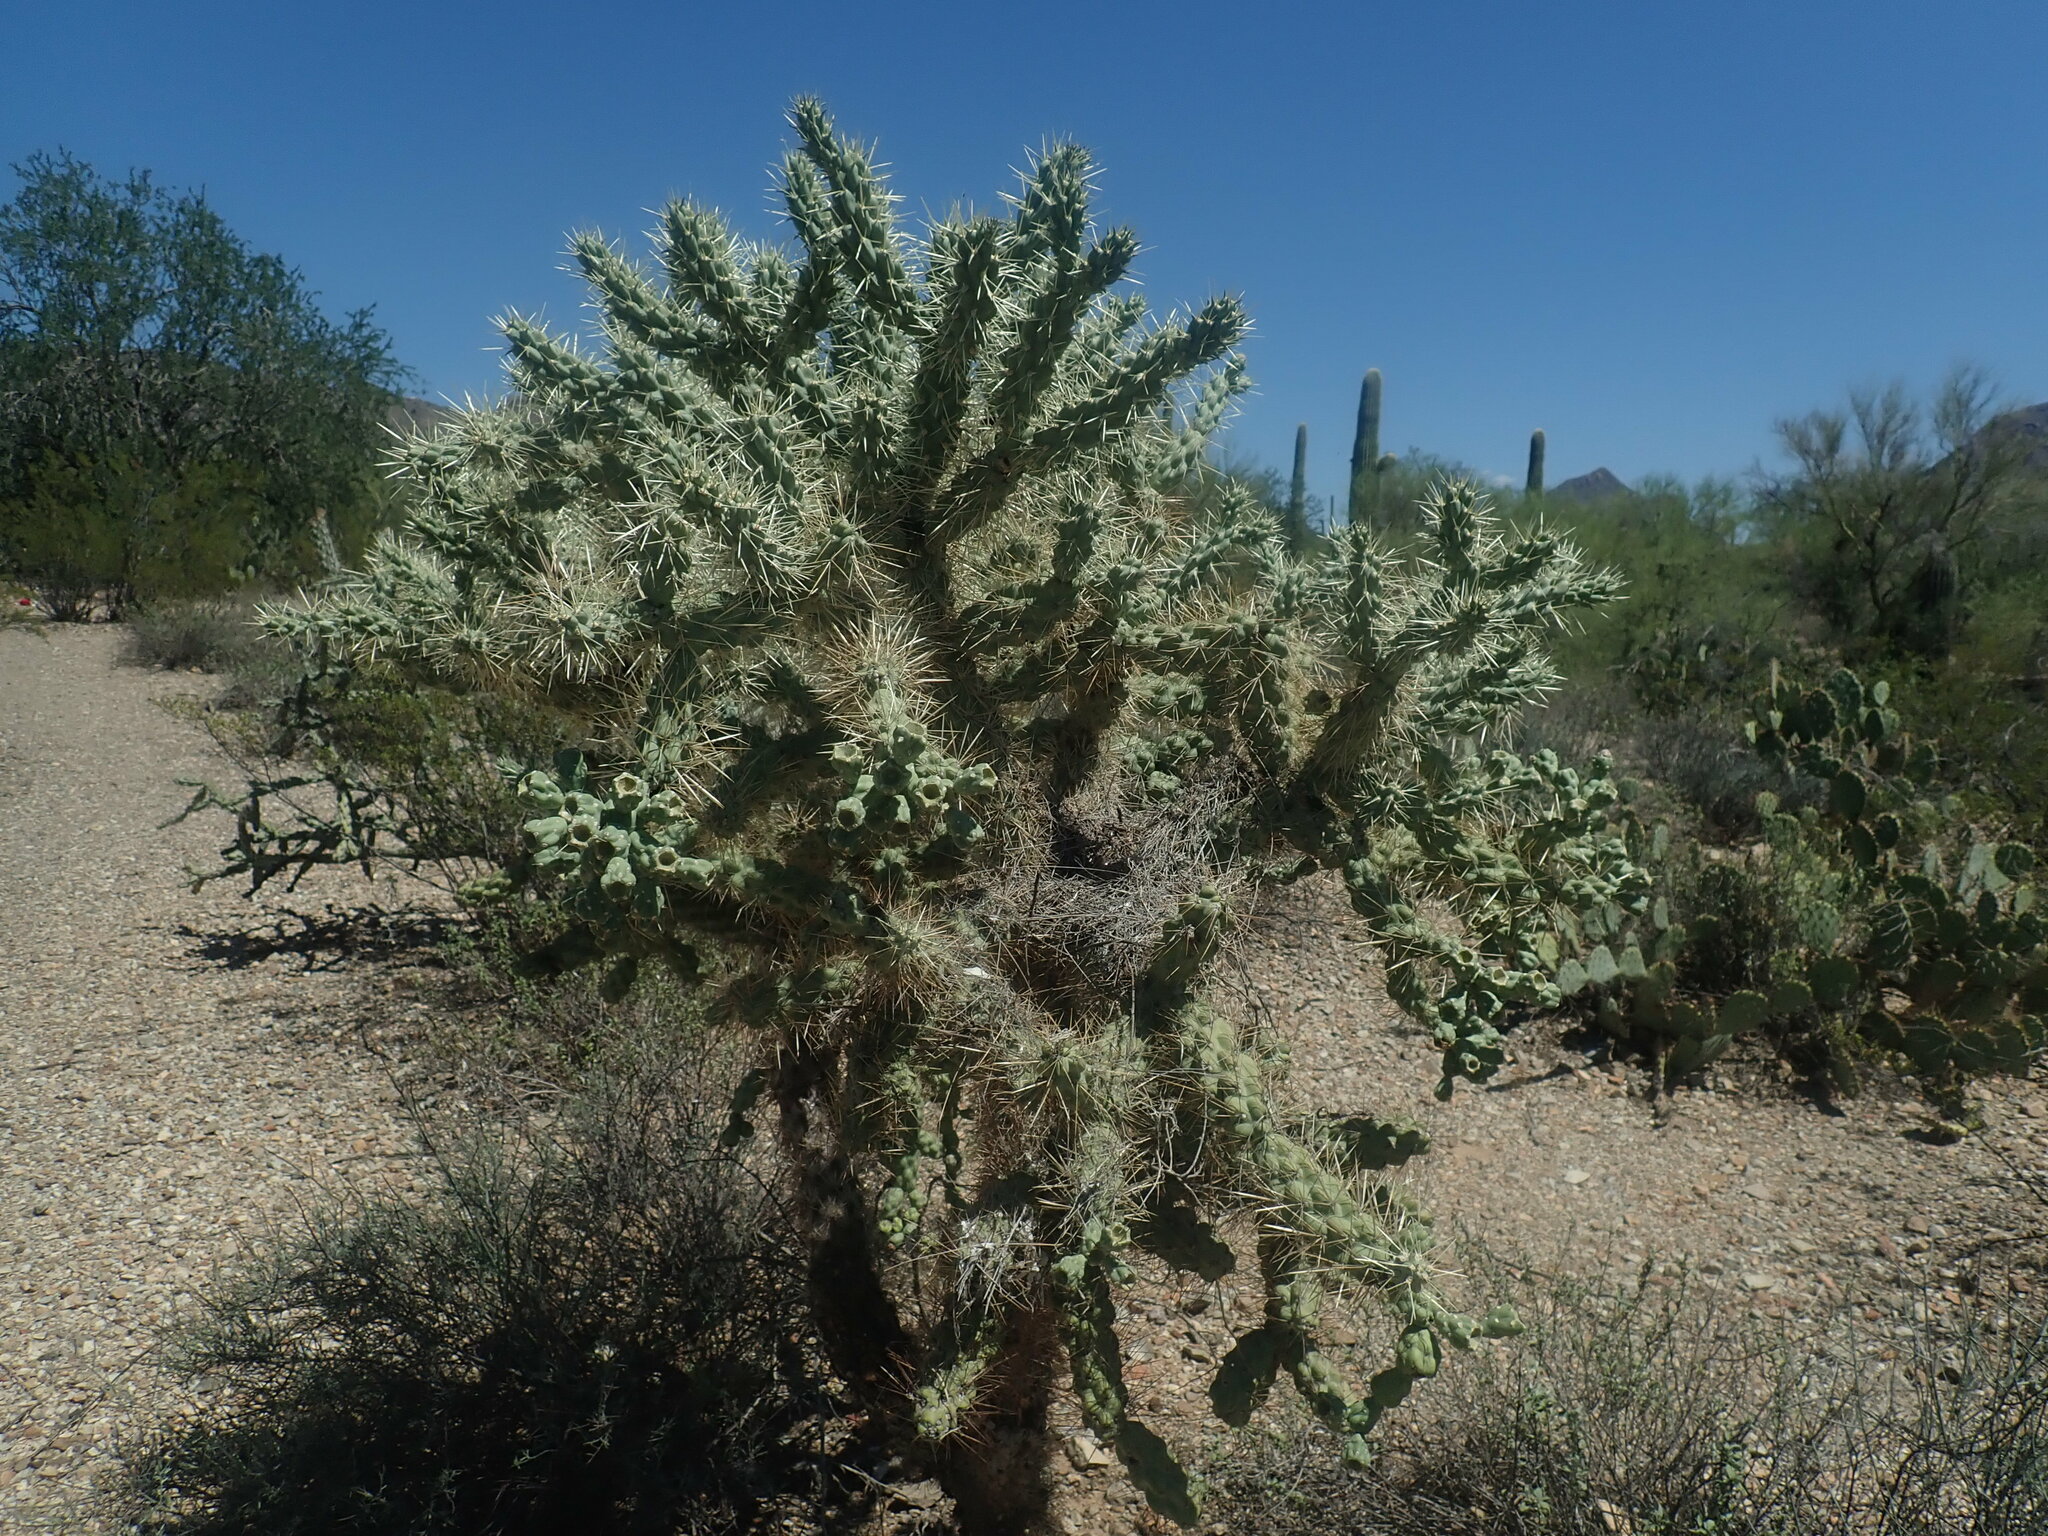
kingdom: Plantae
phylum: Tracheophyta
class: Magnoliopsida
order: Caryophyllales
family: Cactaceae
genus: Cylindropuntia
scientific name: Cylindropuntia fulgida
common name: Jumping cholla
